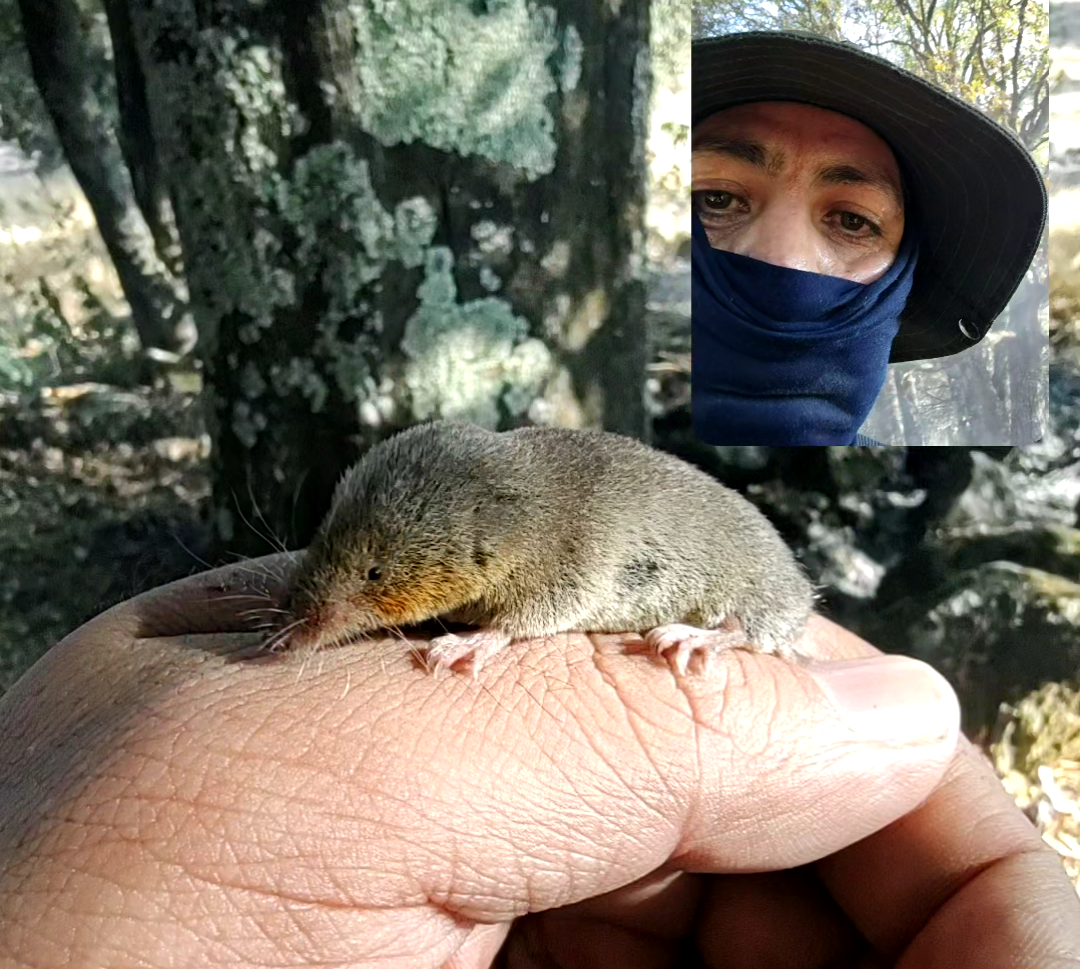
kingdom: Animalia
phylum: Chordata
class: Mammalia
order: Soricomorpha
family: Soricidae
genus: Cryptotis
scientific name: Cryptotis parva
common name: North american least shrew
